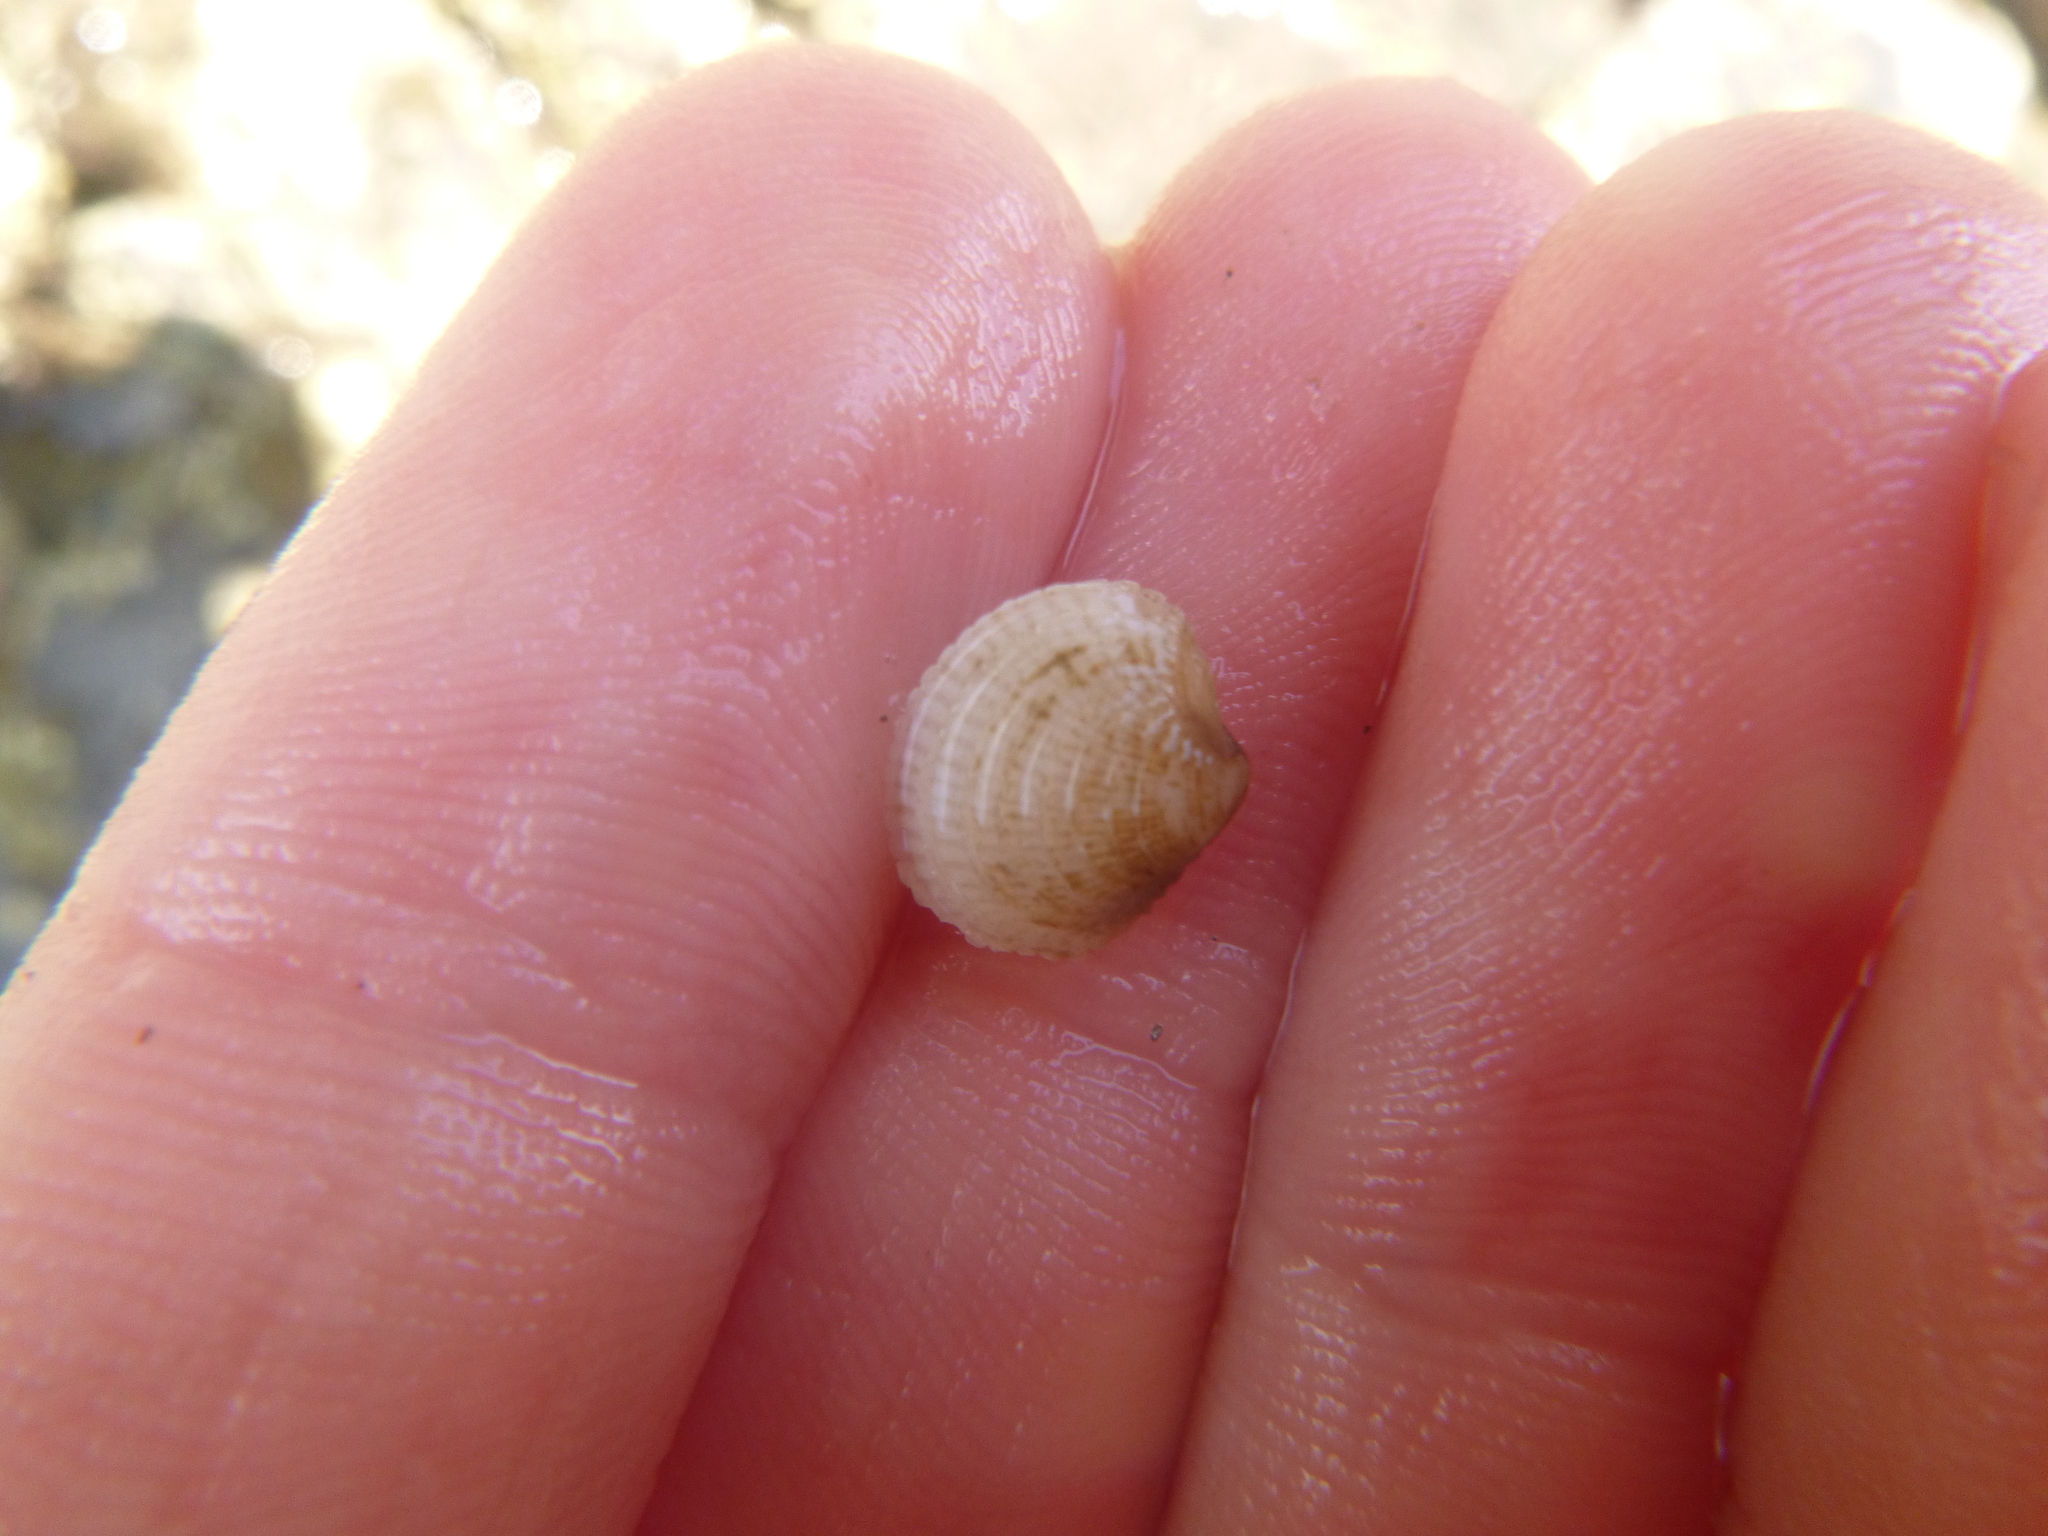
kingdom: Animalia
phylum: Mollusca
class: Bivalvia
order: Venerida
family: Veneridae
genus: Austrovenus
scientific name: Austrovenus stutchburyi
